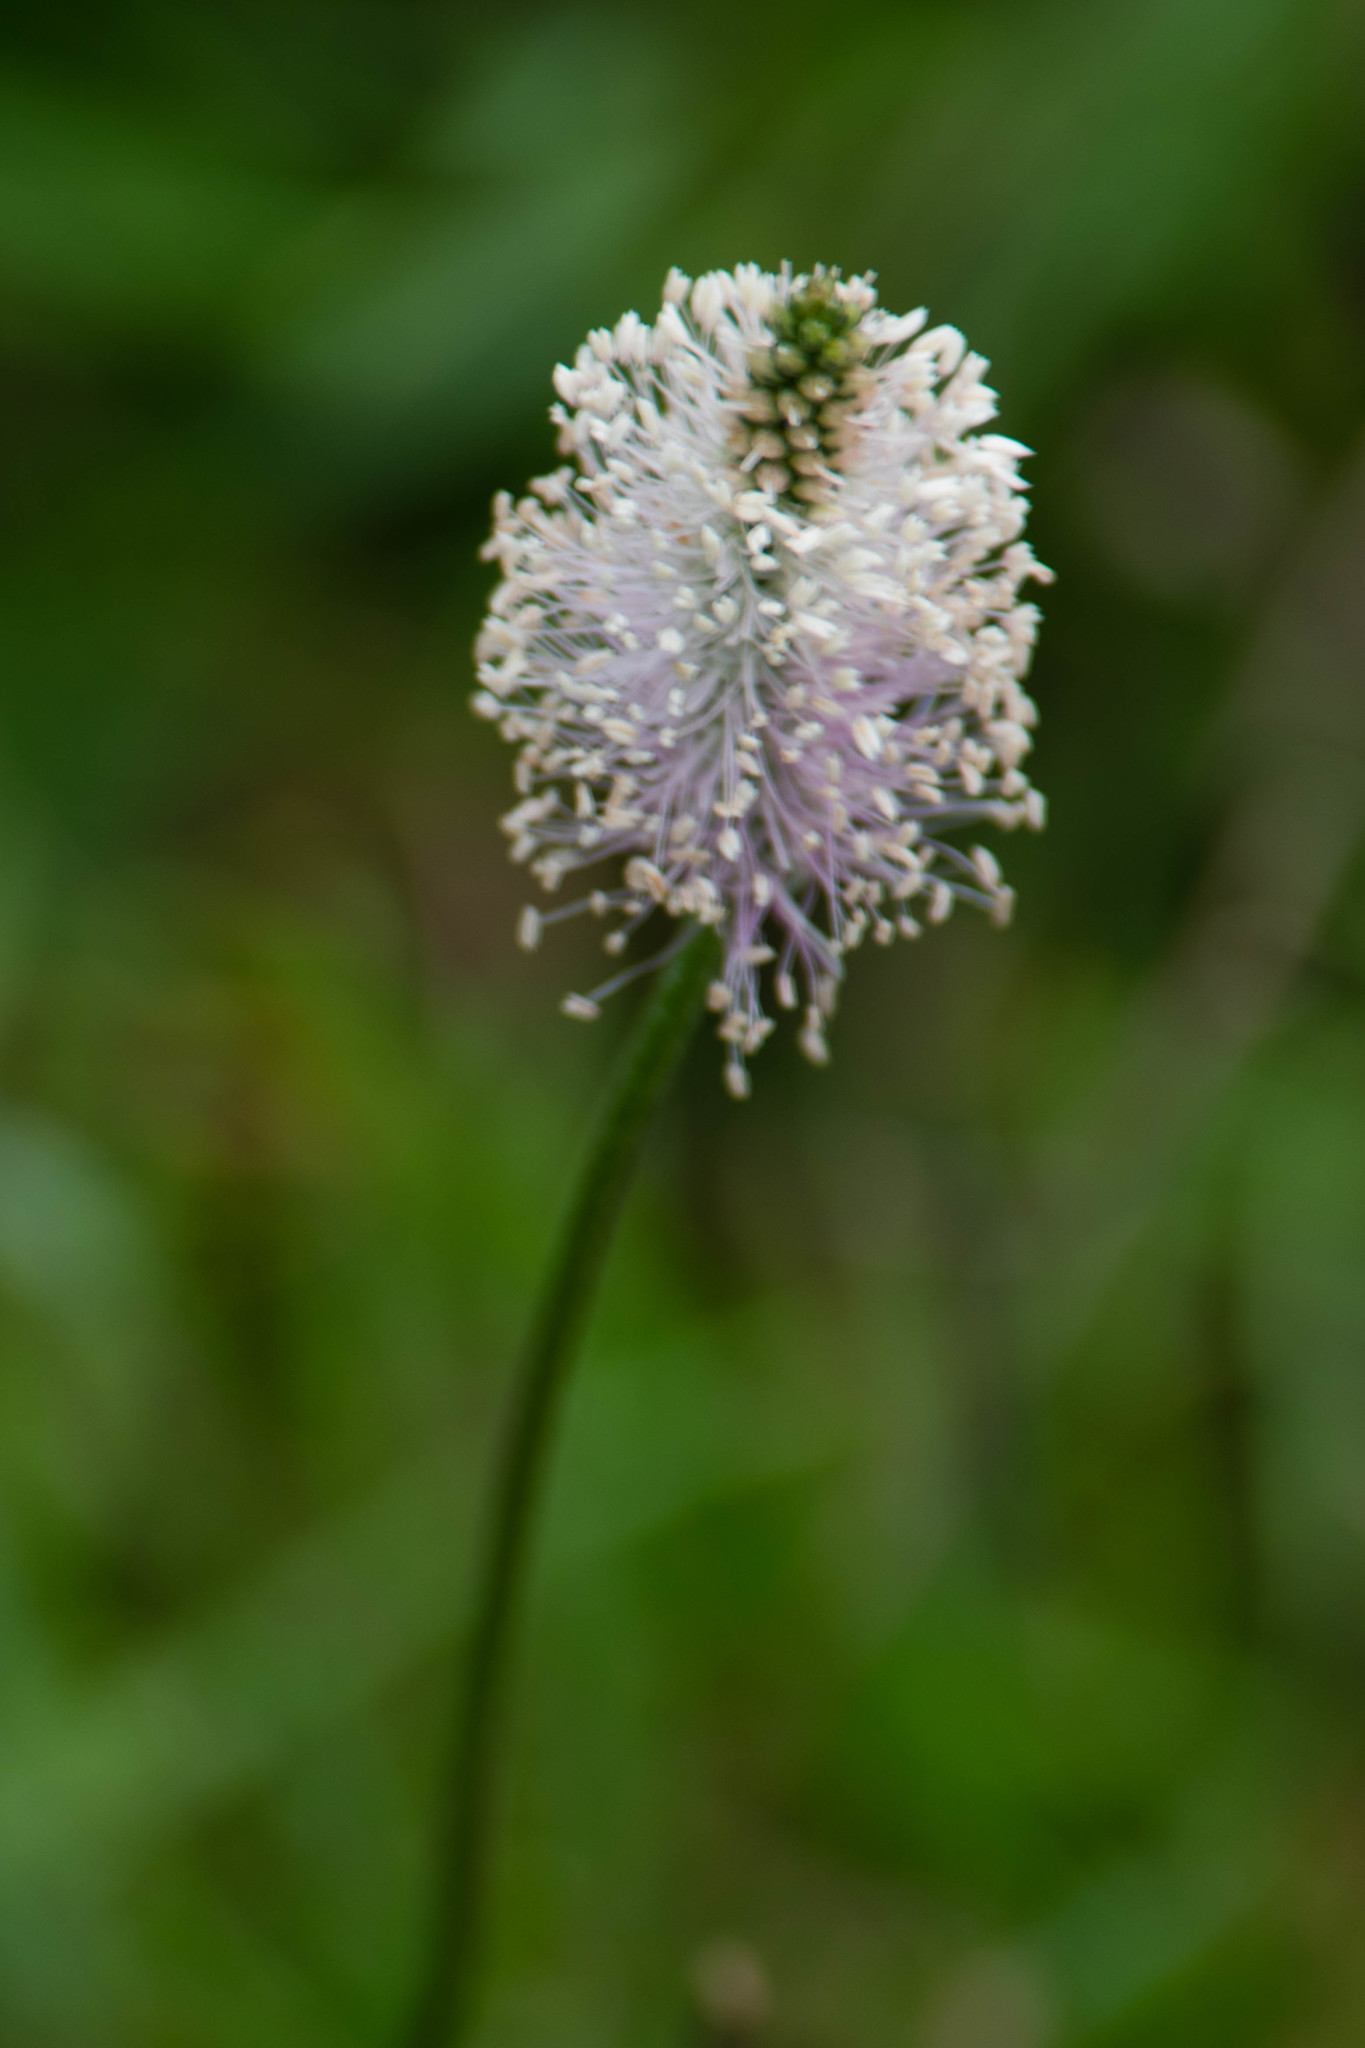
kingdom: Plantae
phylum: Tracheophyta
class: Magnoliopsida
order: Lamiales
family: Plantaginaceae
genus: Plantago
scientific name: Plantago media
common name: Hoary plantain
